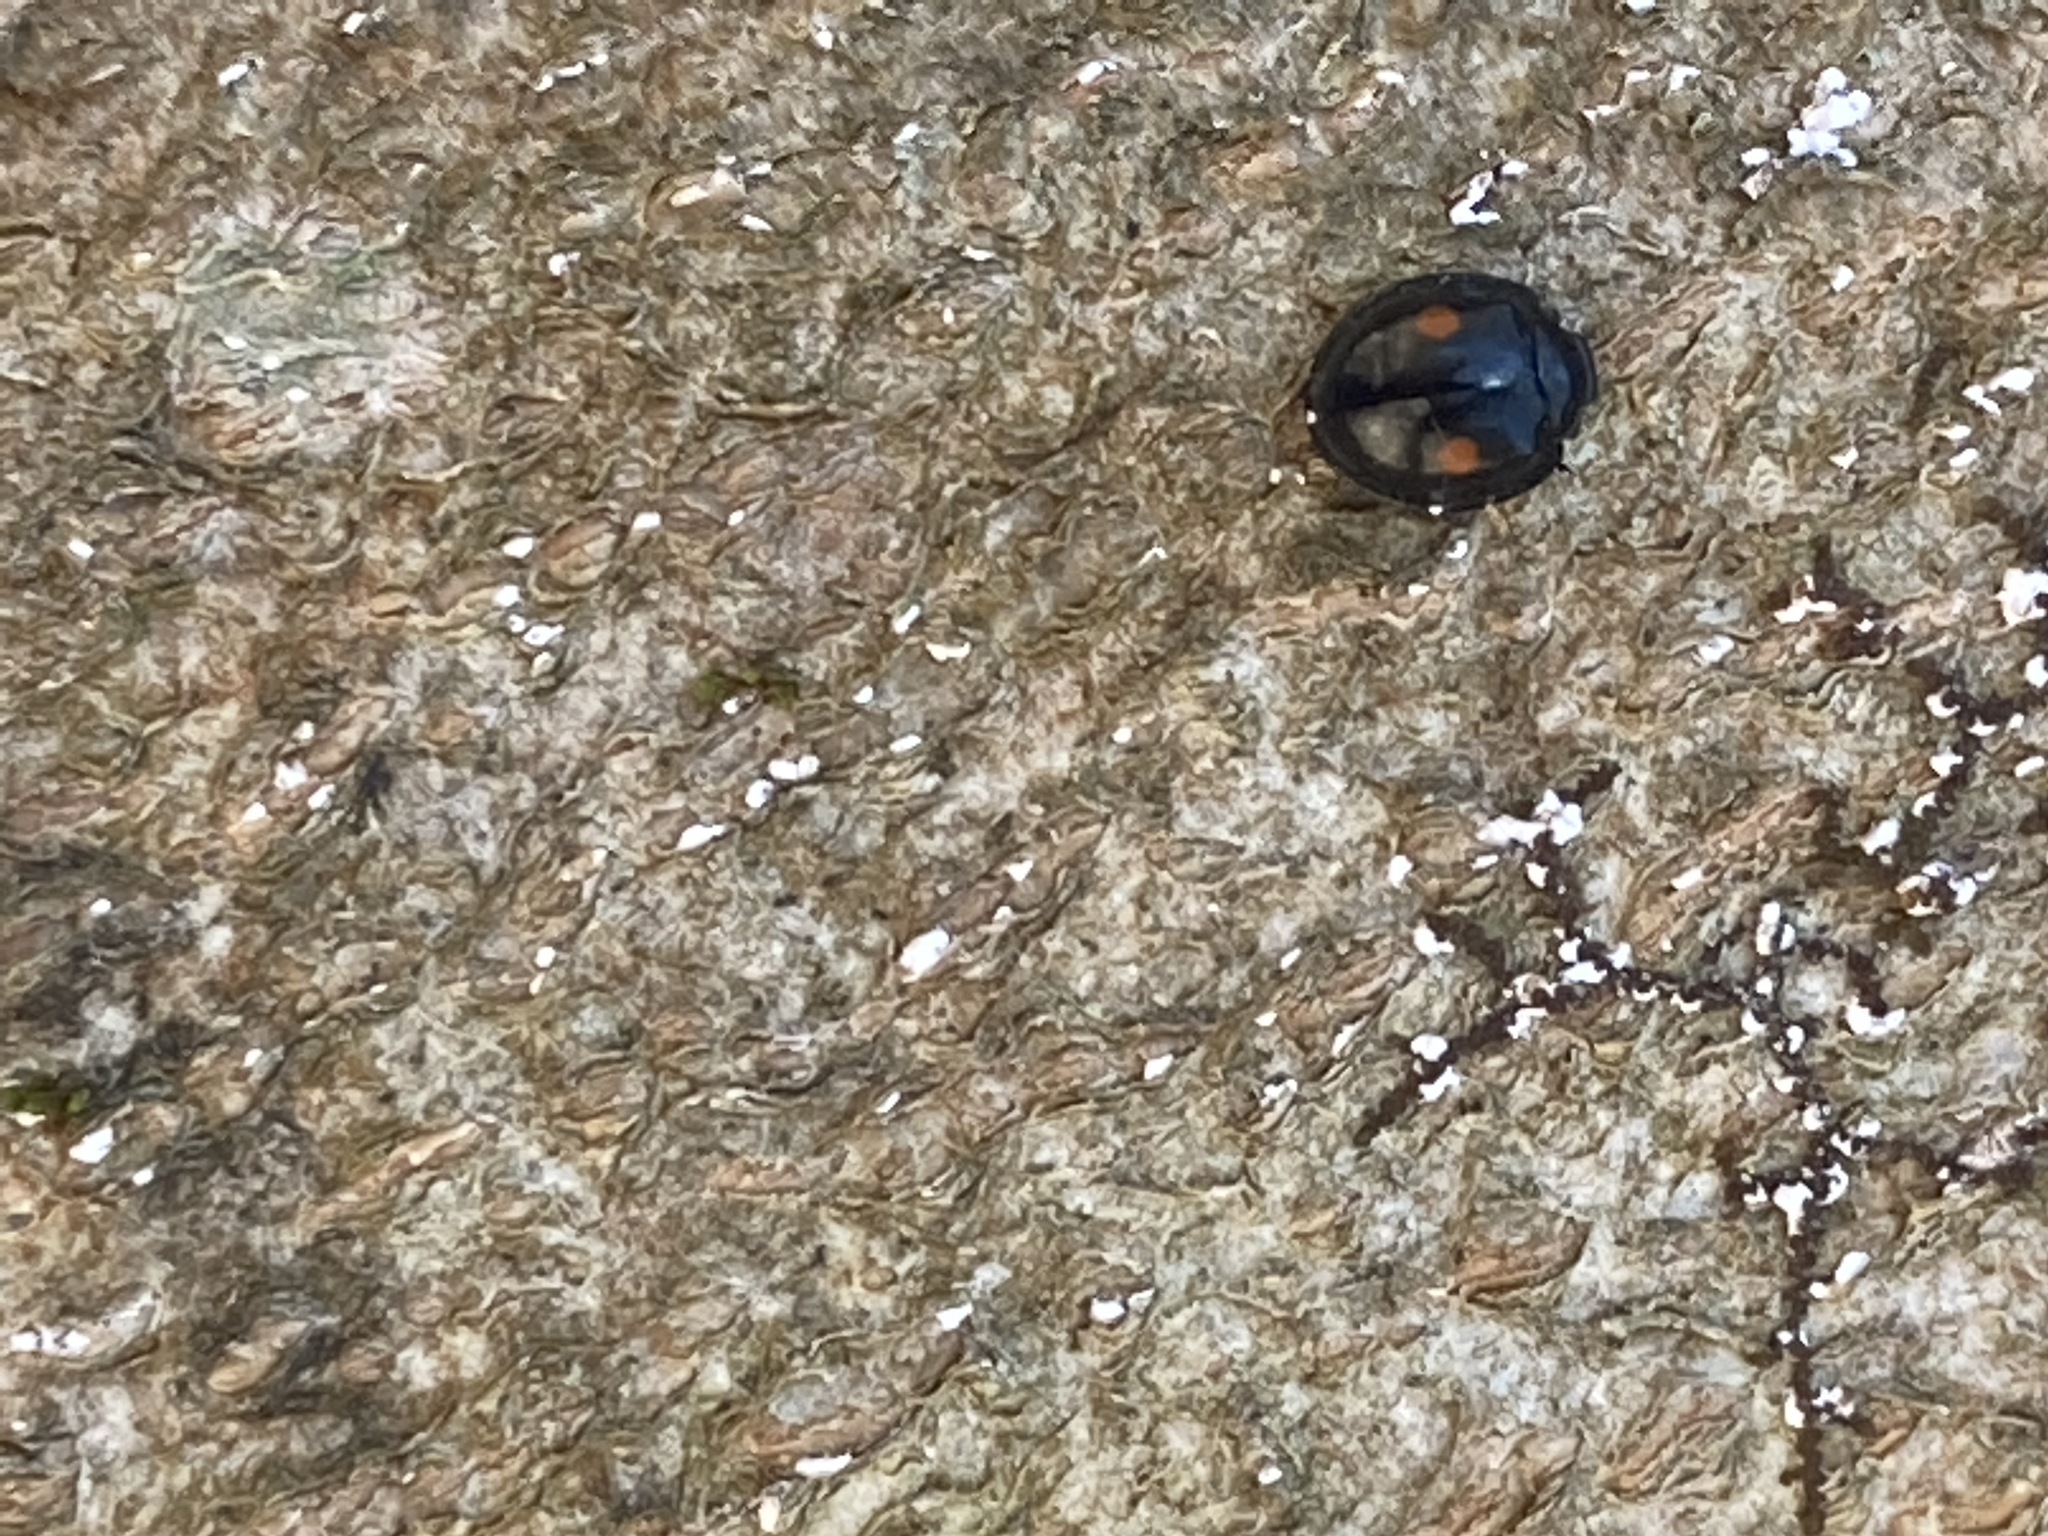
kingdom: Animalia
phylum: Arthropoda
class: Insecta
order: Coleoptera
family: Coccinellidae
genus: Chilocorus
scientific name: Chilocorus stigma
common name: Twicestabbed lady beetle
